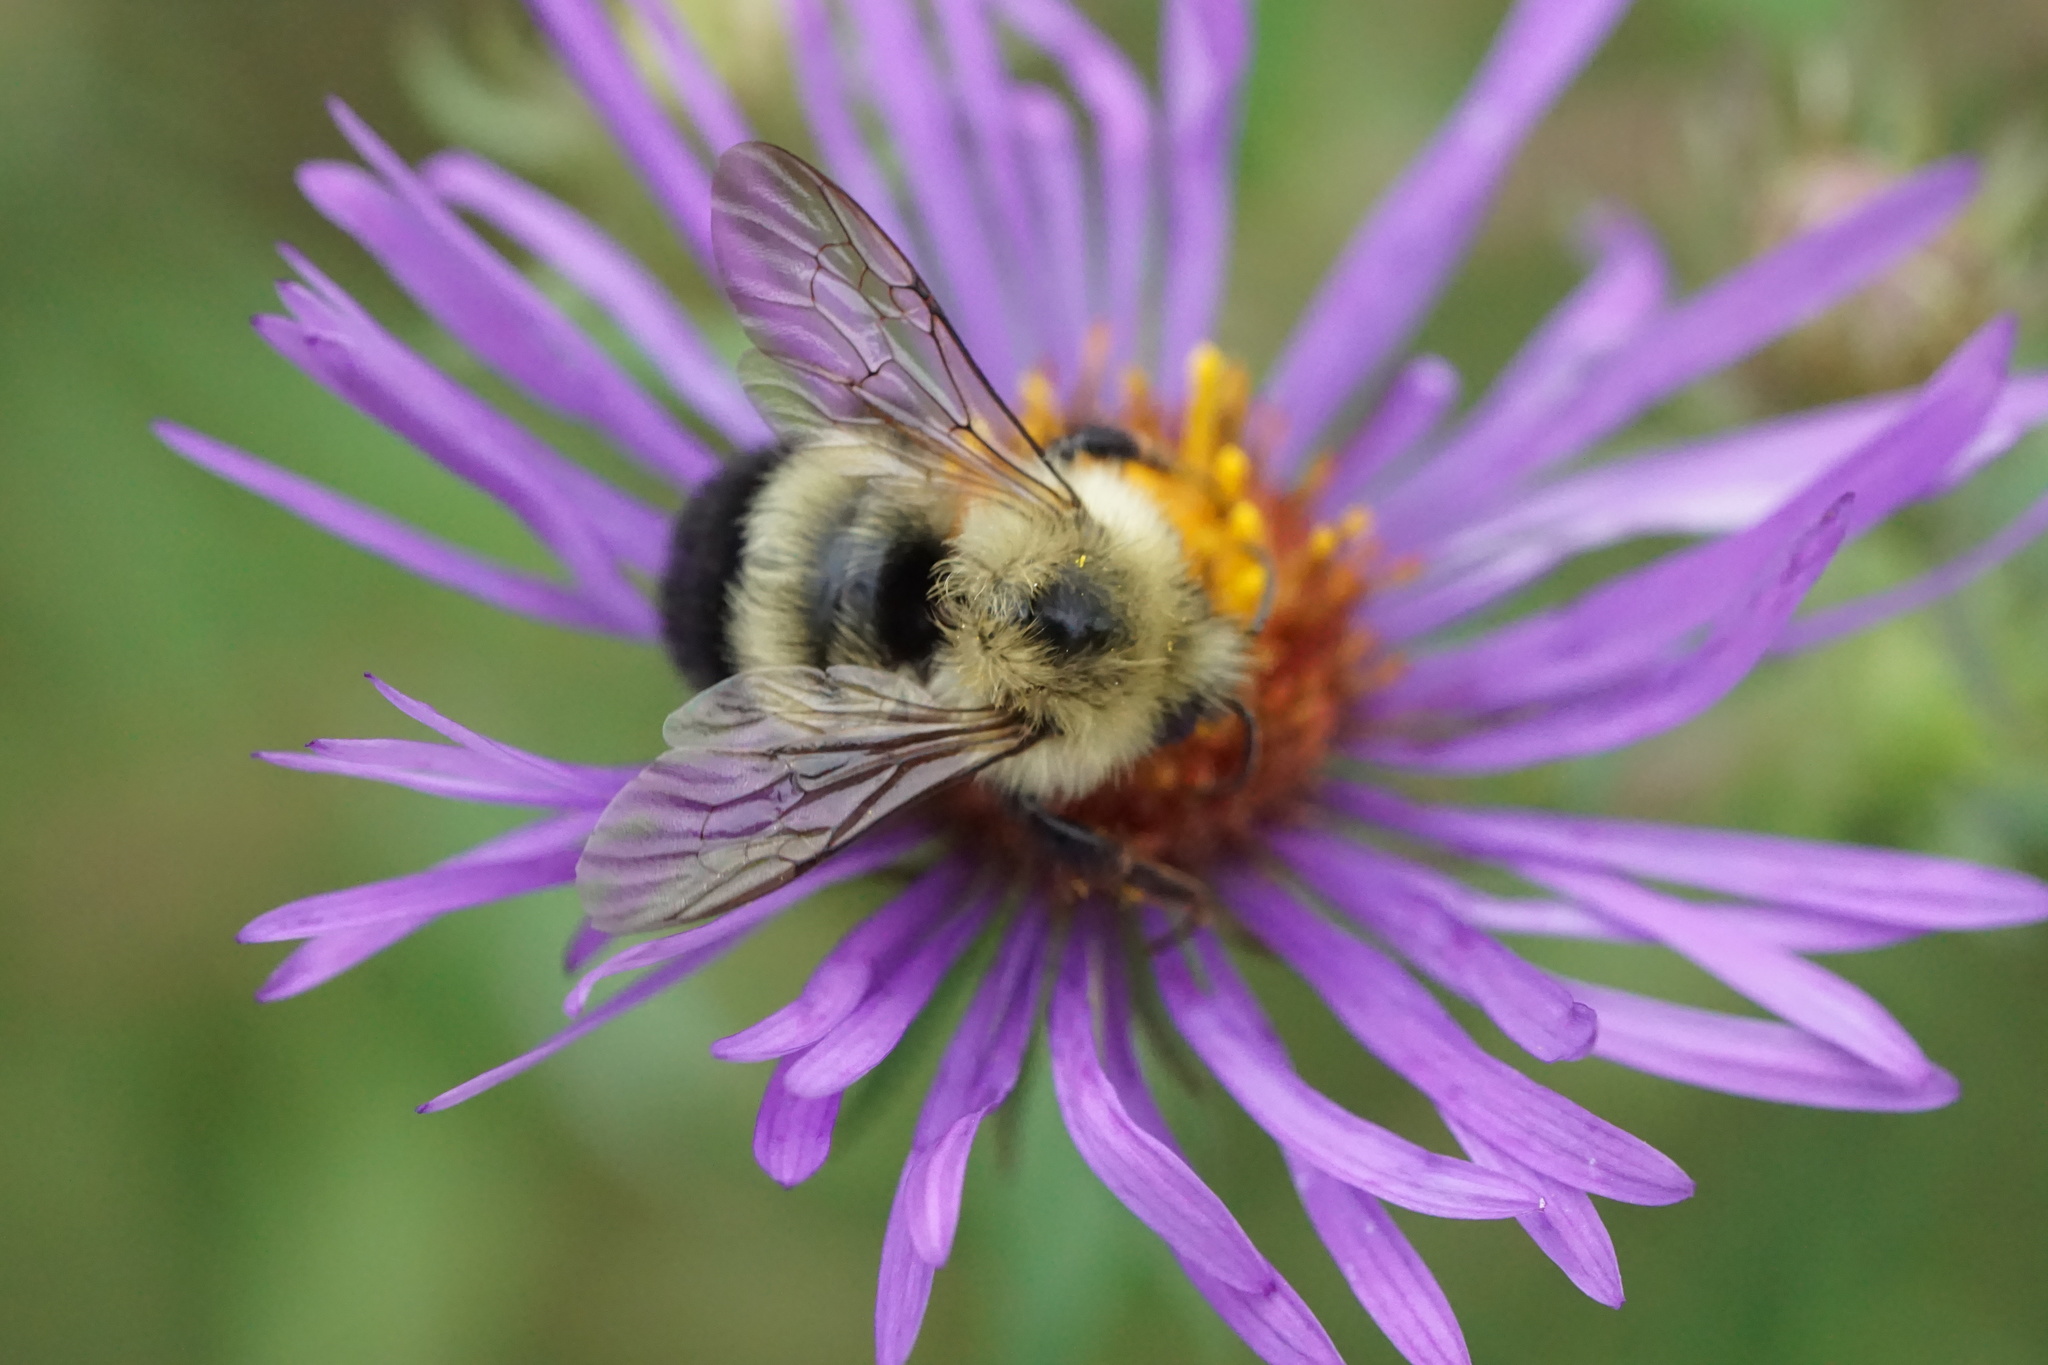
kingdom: Animalia
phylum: Arthropoda
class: Insecta
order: Hymenoptera
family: Apidae
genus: Pyrobombus
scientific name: Pyrobombus
